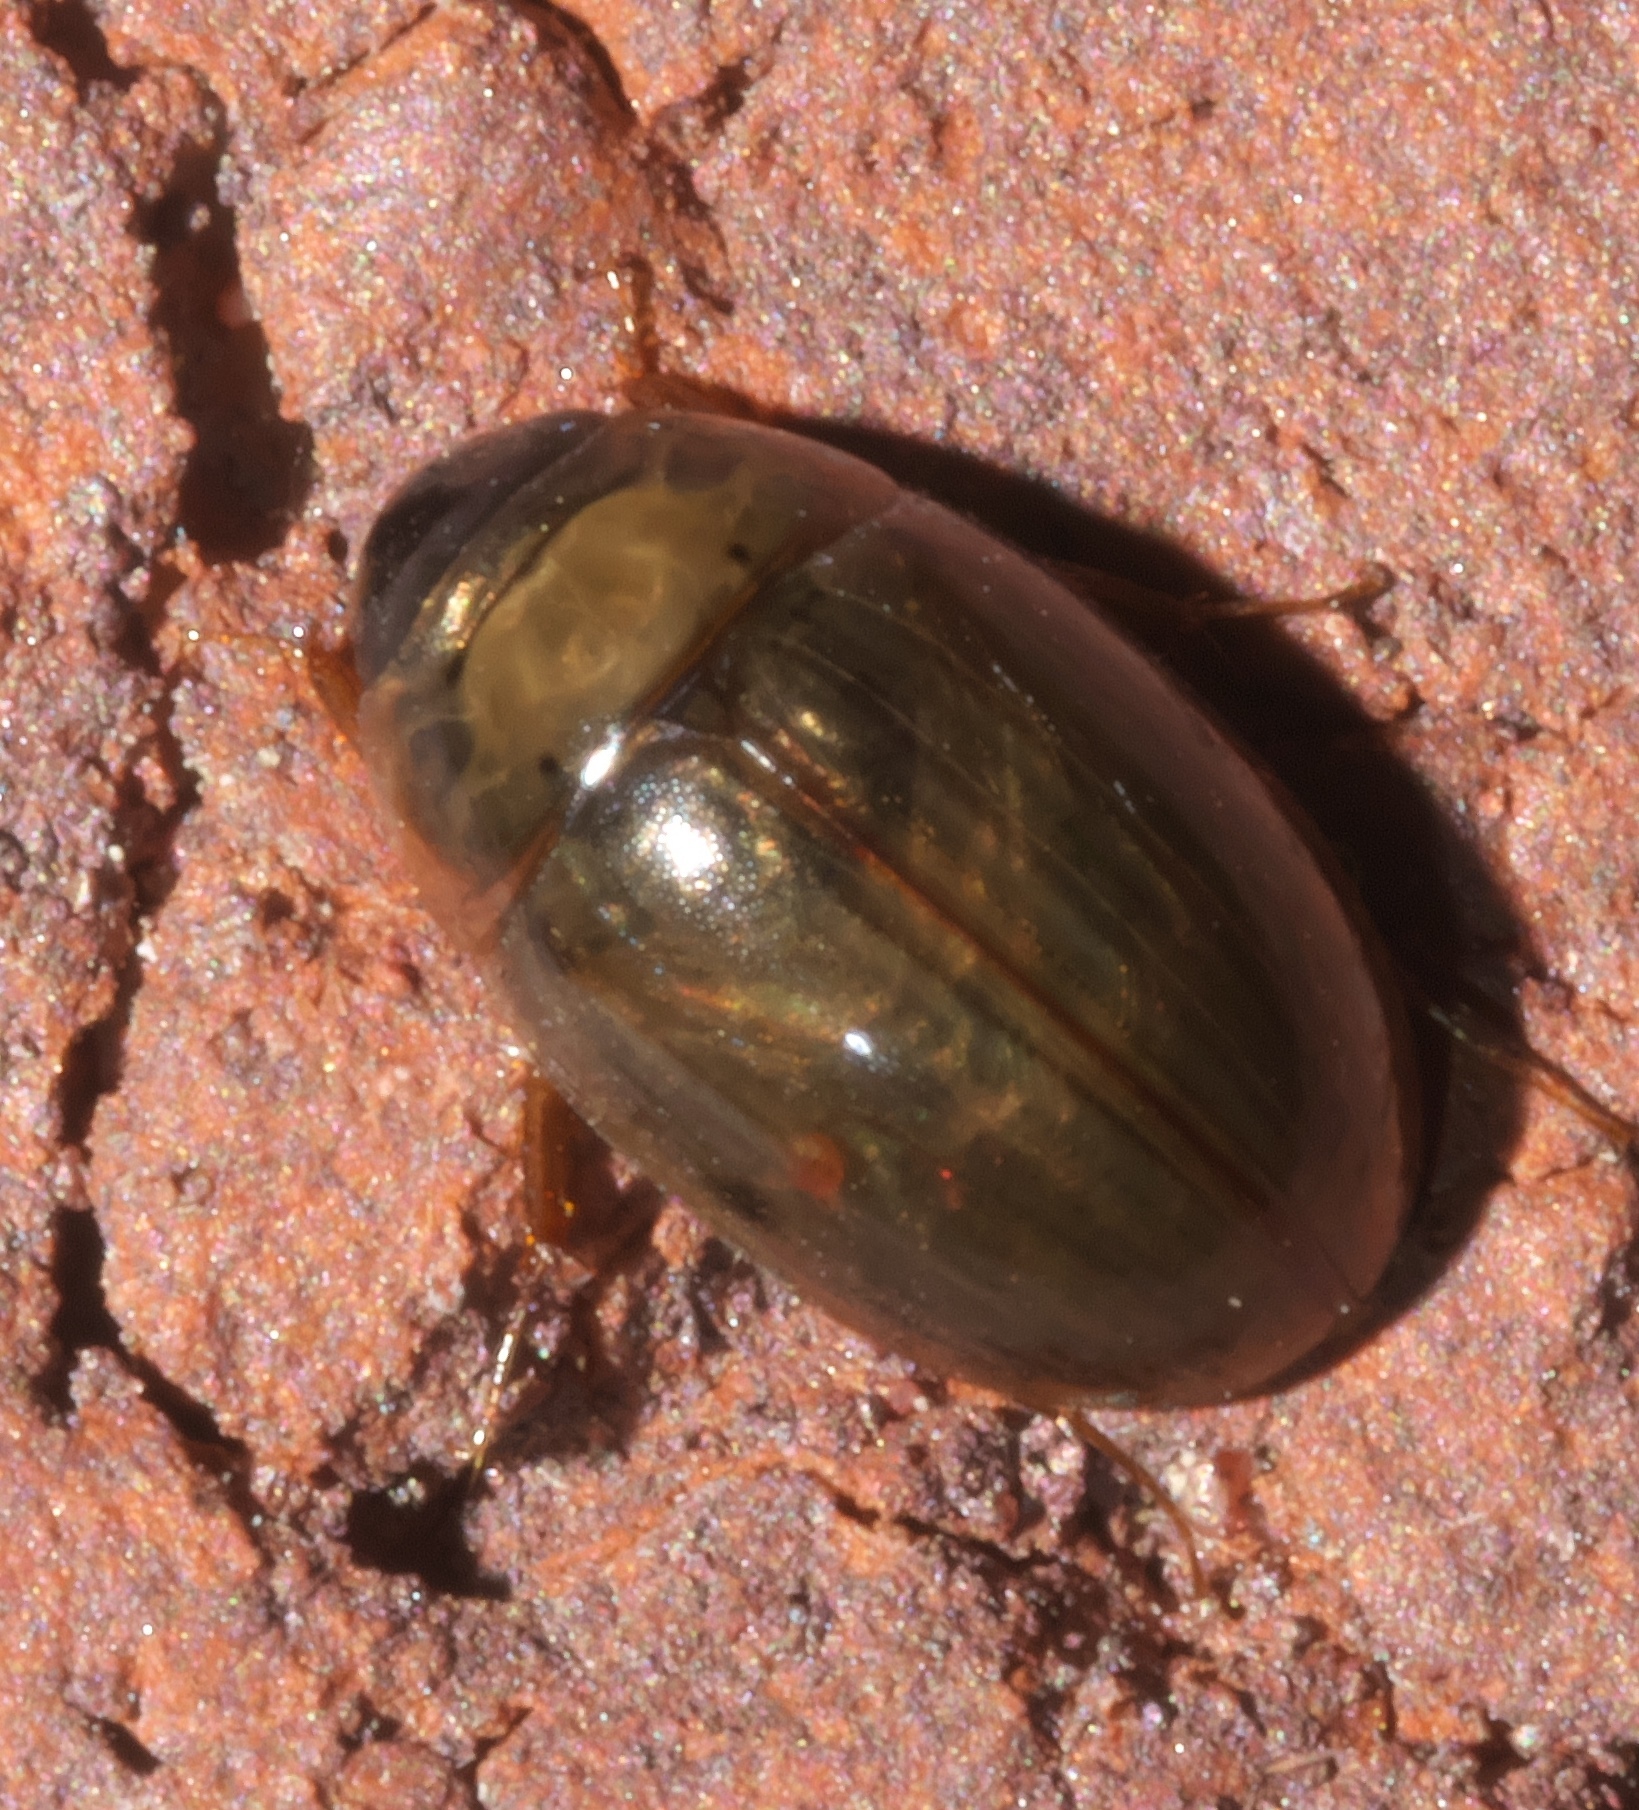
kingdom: Animalia
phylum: Arthropoda
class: Insecta
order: Coleoptera
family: Hydrophilidae
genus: Enochrus
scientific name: Enochrus
